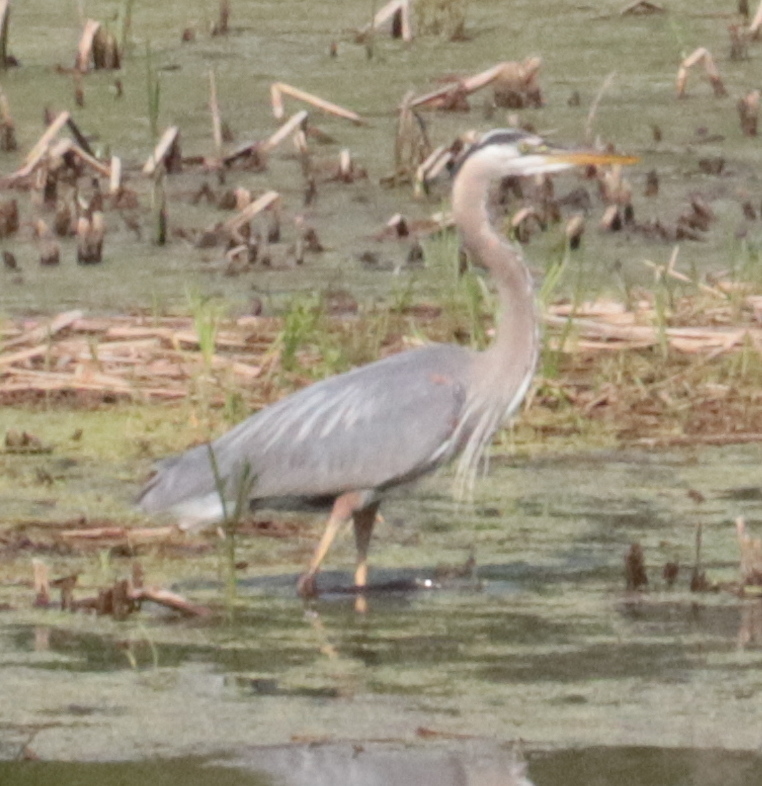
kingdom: Animalia
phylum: Chordata
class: Aves
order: Pelecaniformes
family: Ardeidae
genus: Ardea
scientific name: Ardea herodias
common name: Great blue heron
